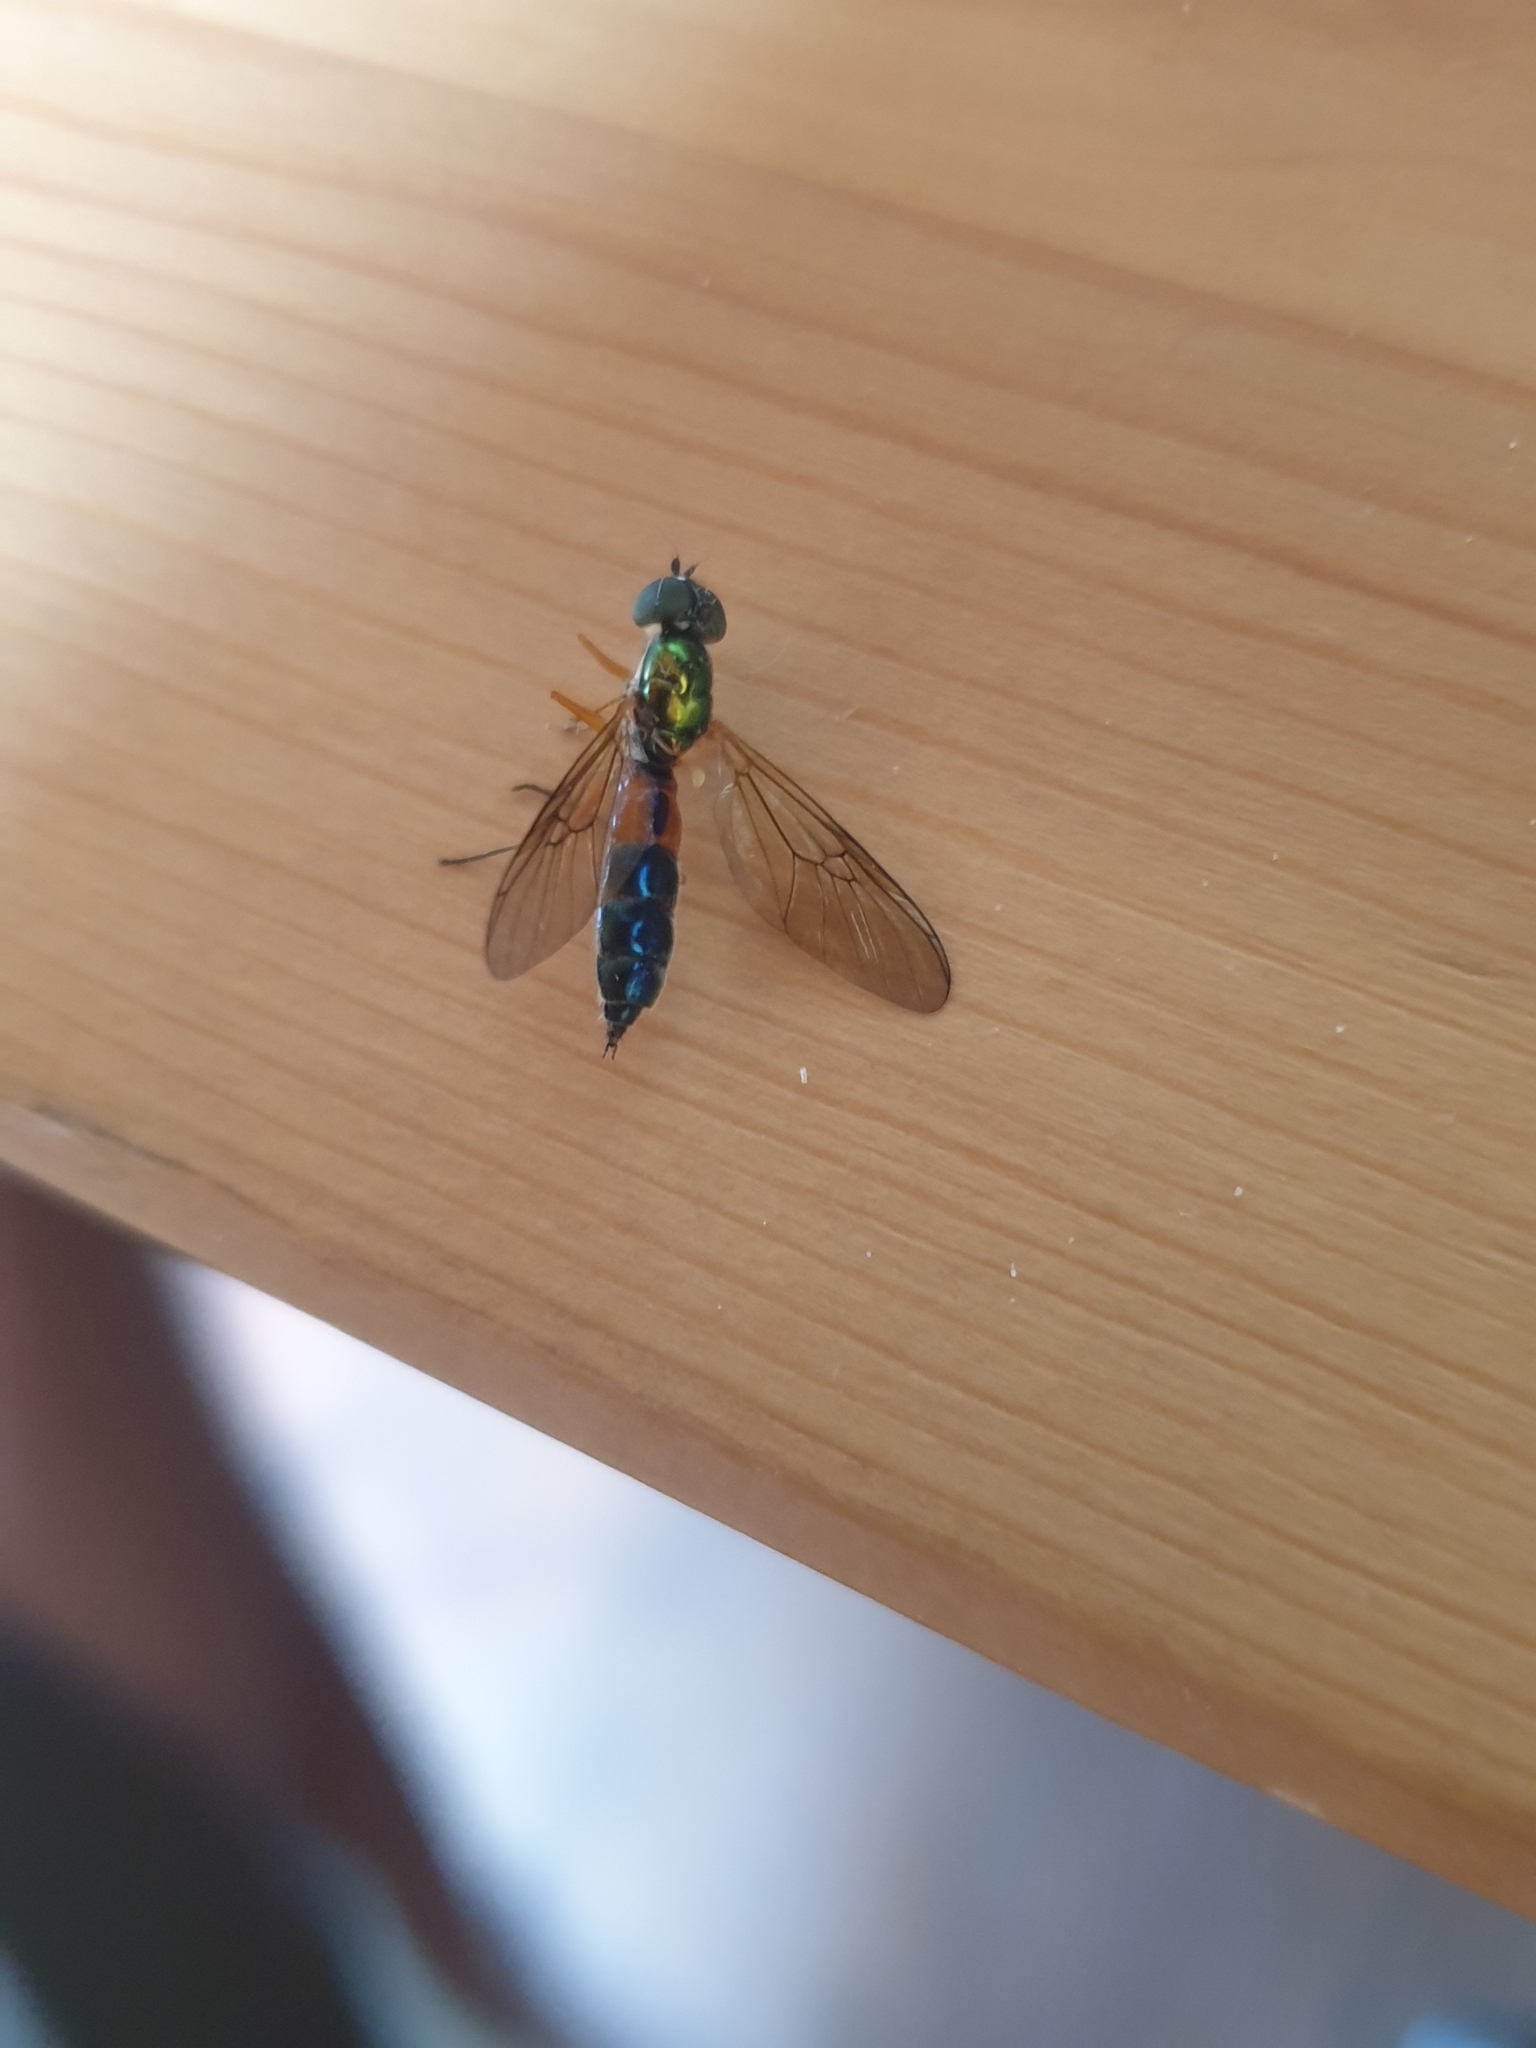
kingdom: Animalia
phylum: Arthropoda
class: Insecta
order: Diptera
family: Stratiomyidae
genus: Sargus
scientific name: Sargus bipunctatus
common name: Twin-spot centurion
